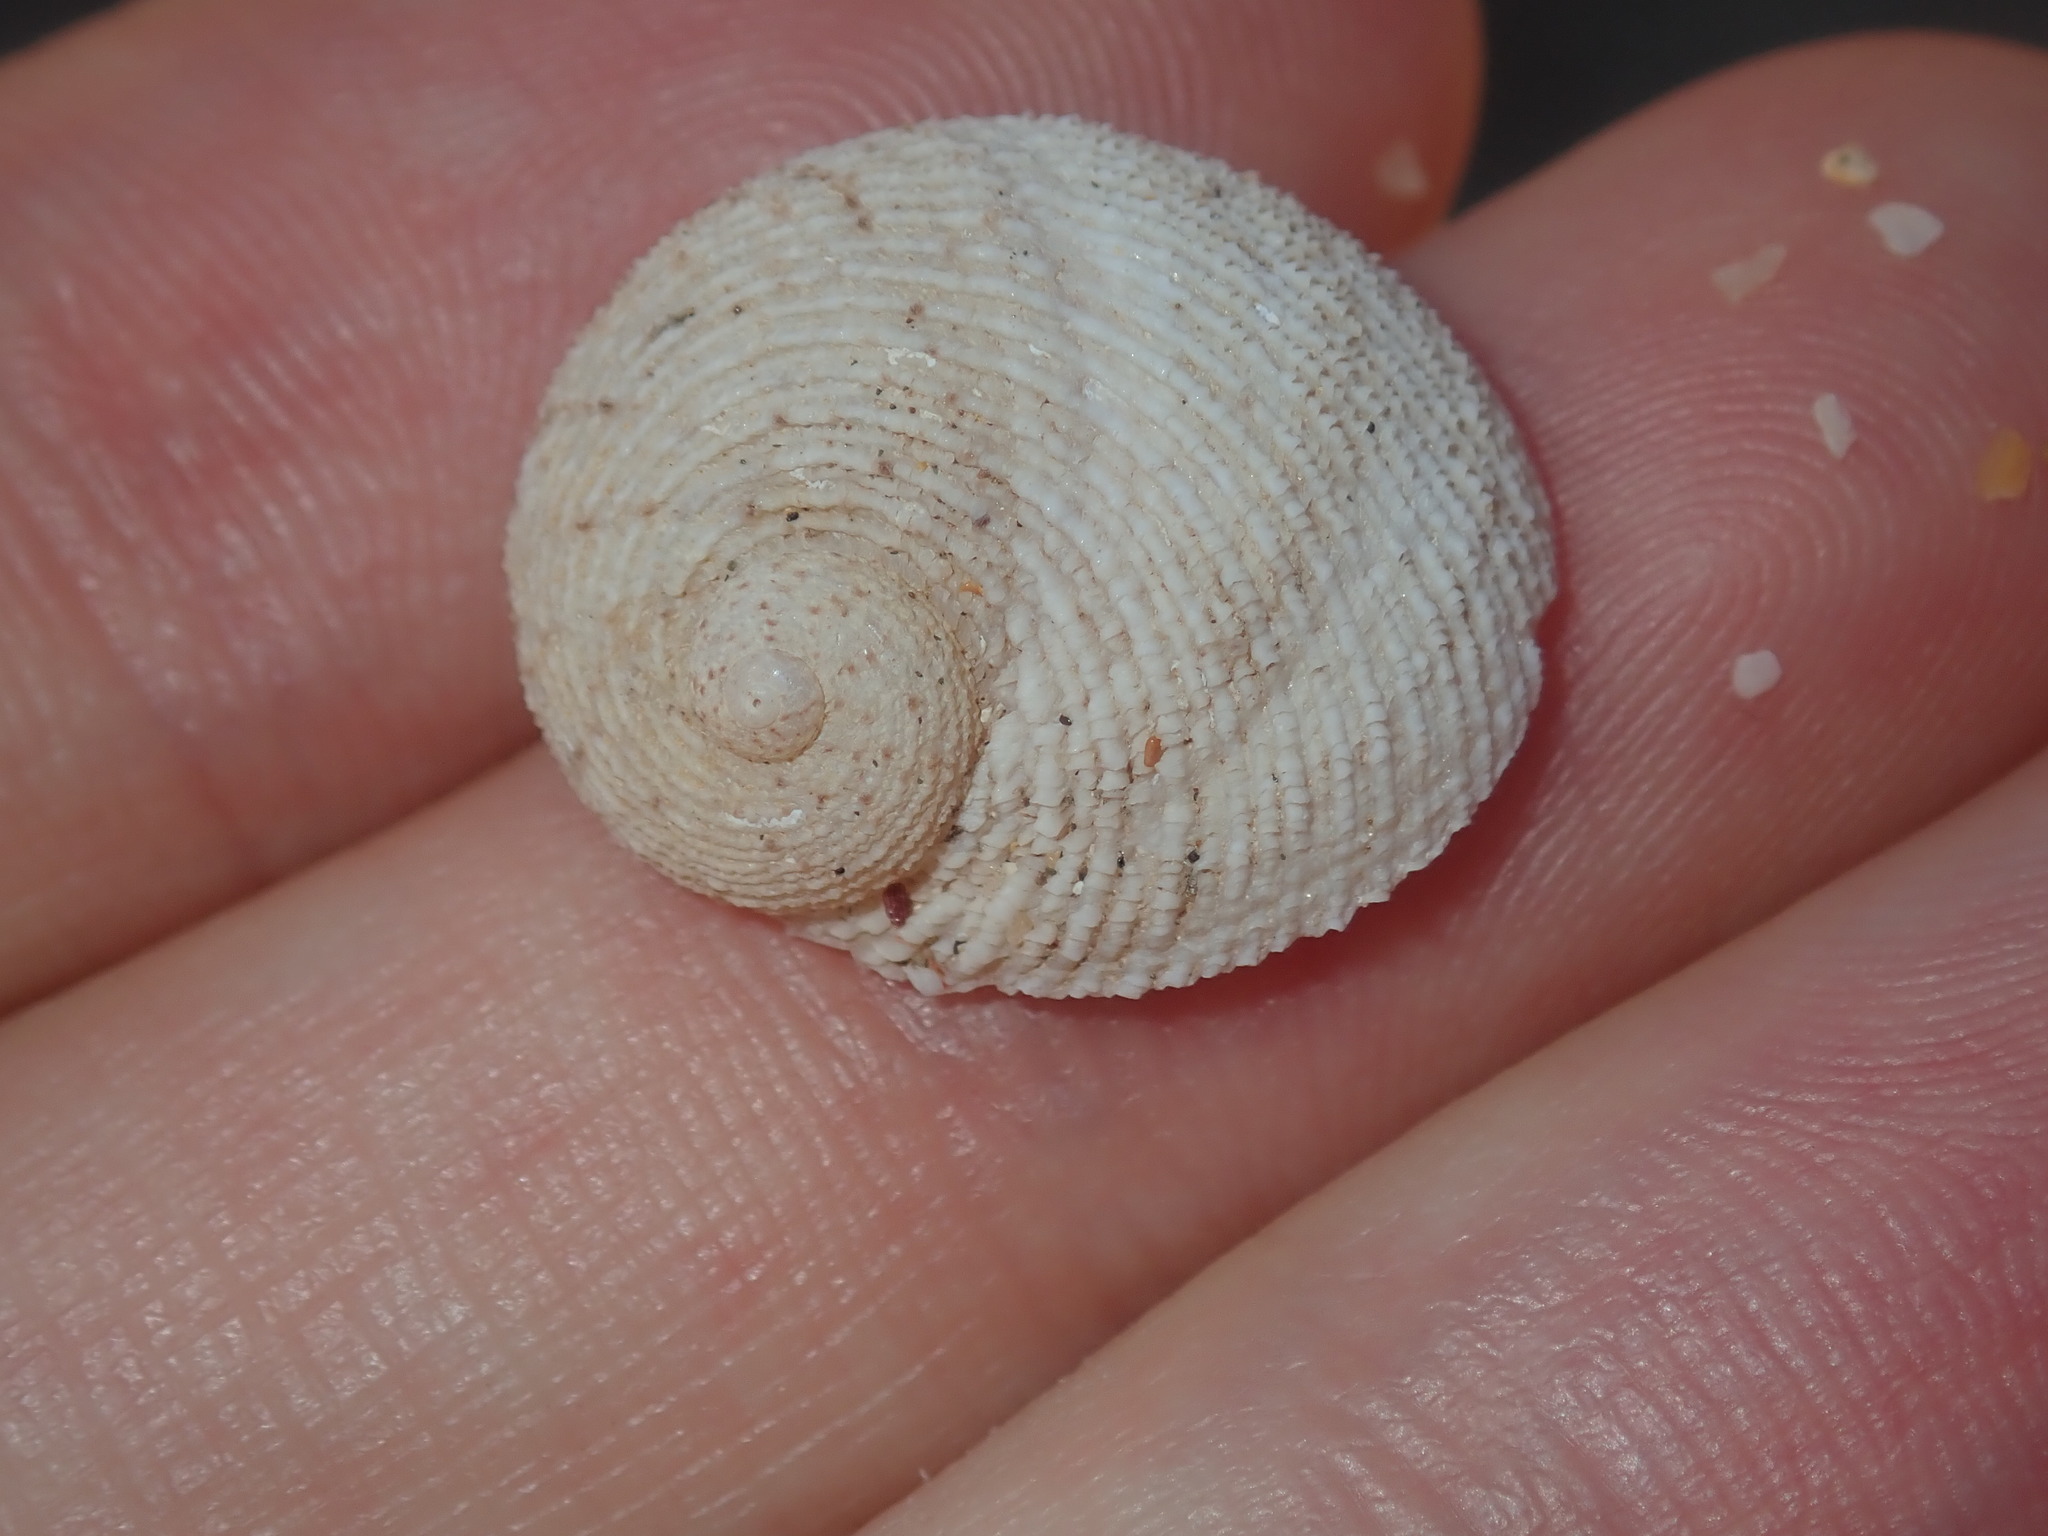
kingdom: Animalia
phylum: Mollusca
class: Gastropoda
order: Seguenziida
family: Chilodontaidae
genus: Granata
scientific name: Granata imbricata
